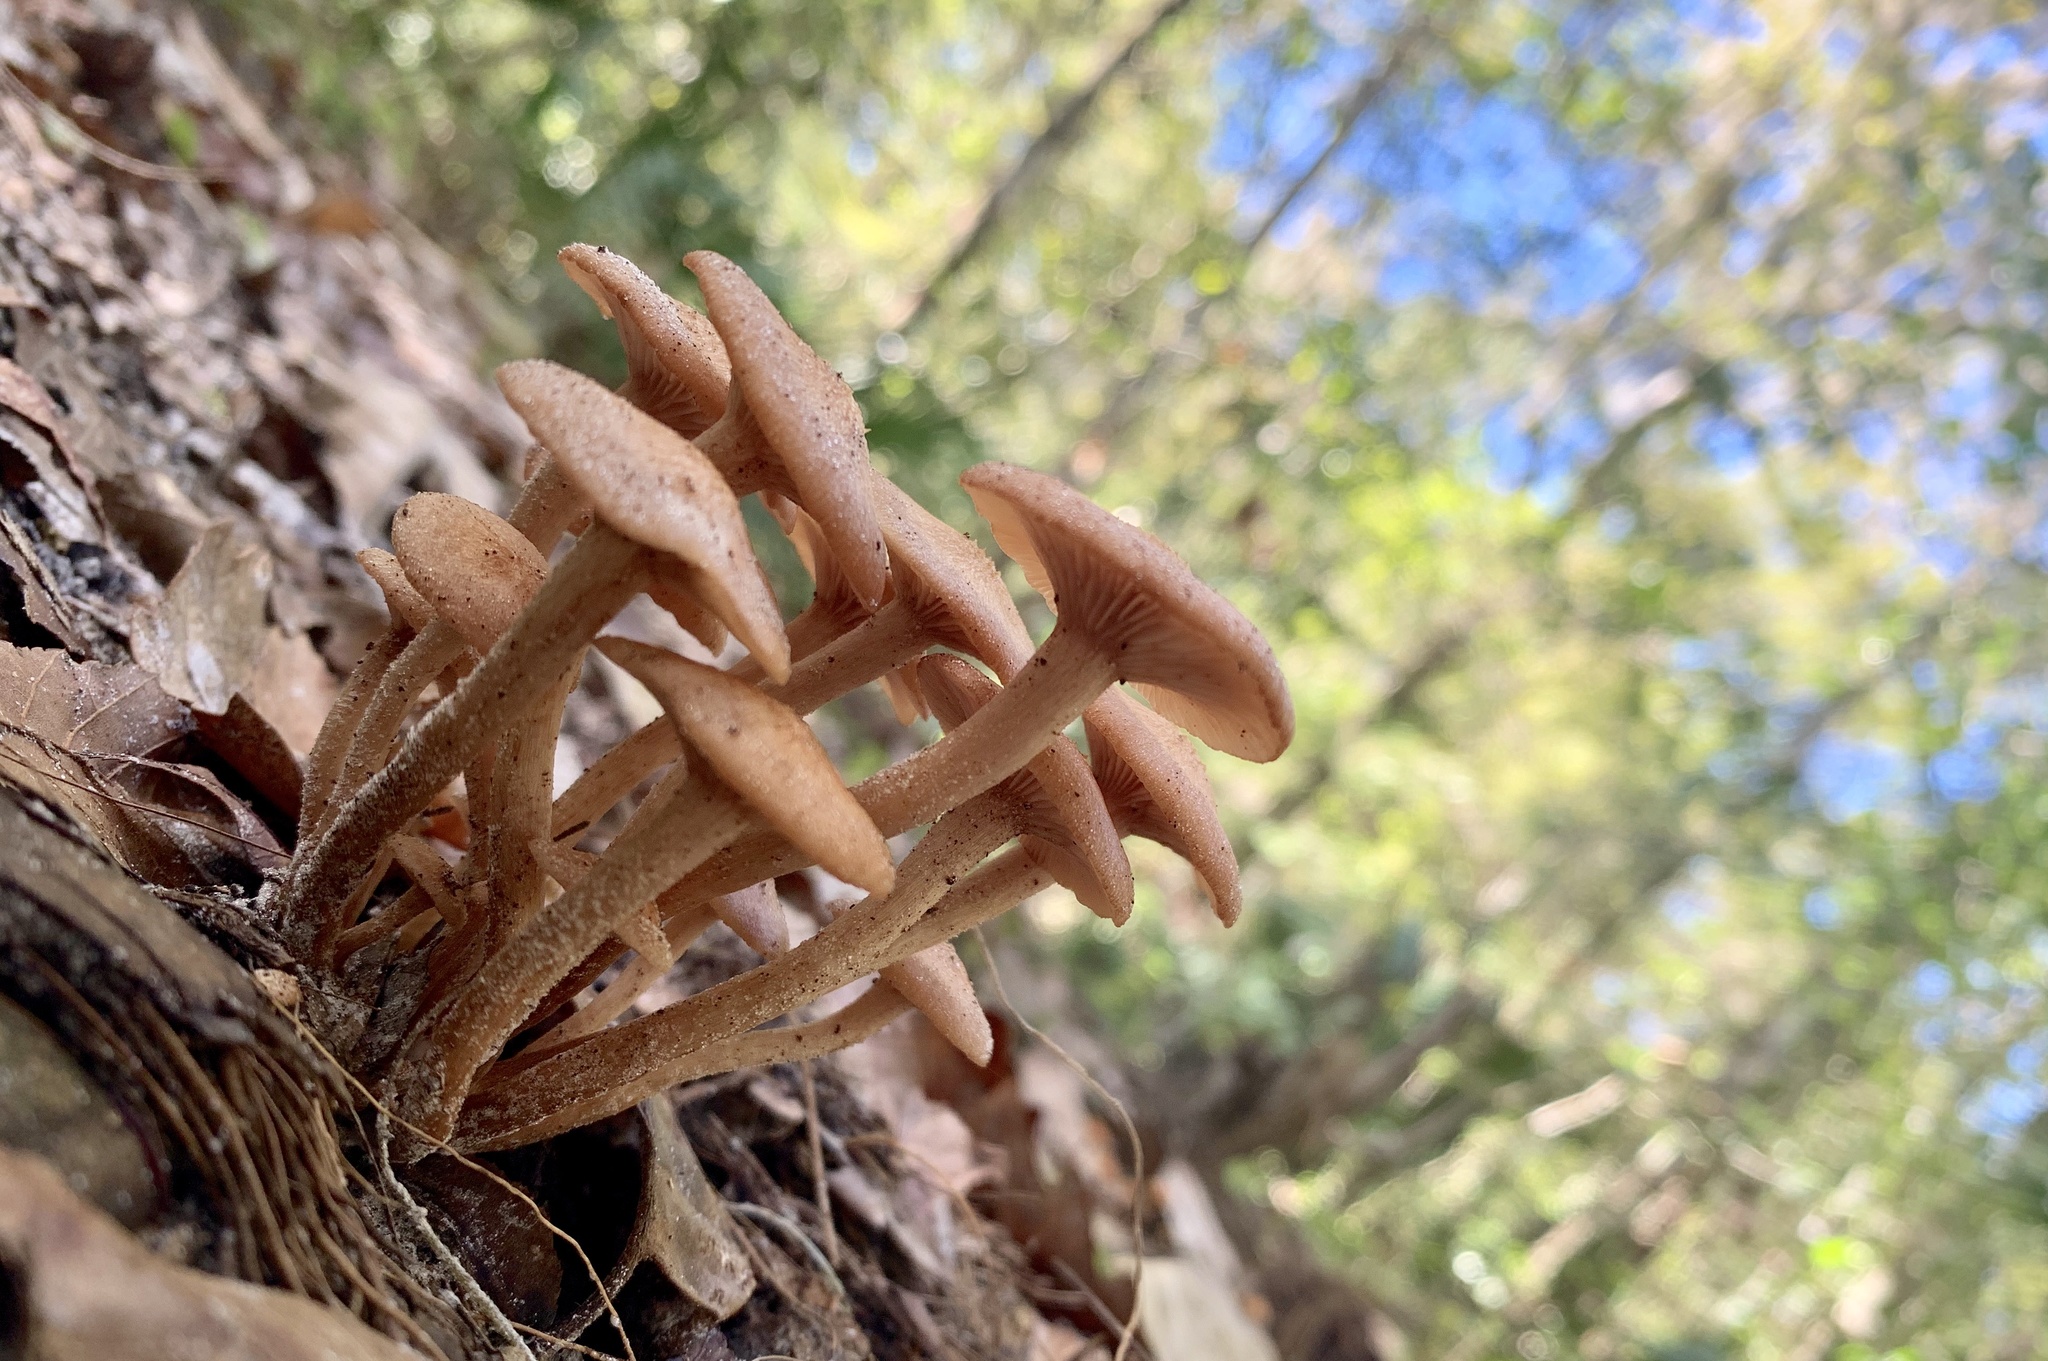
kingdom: Fungi
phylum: Basidiomycota
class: Agaricomycetes
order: Agaricales
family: Physalacriaceae
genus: Desarmillaria
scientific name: Desarmillaria caespitosa
